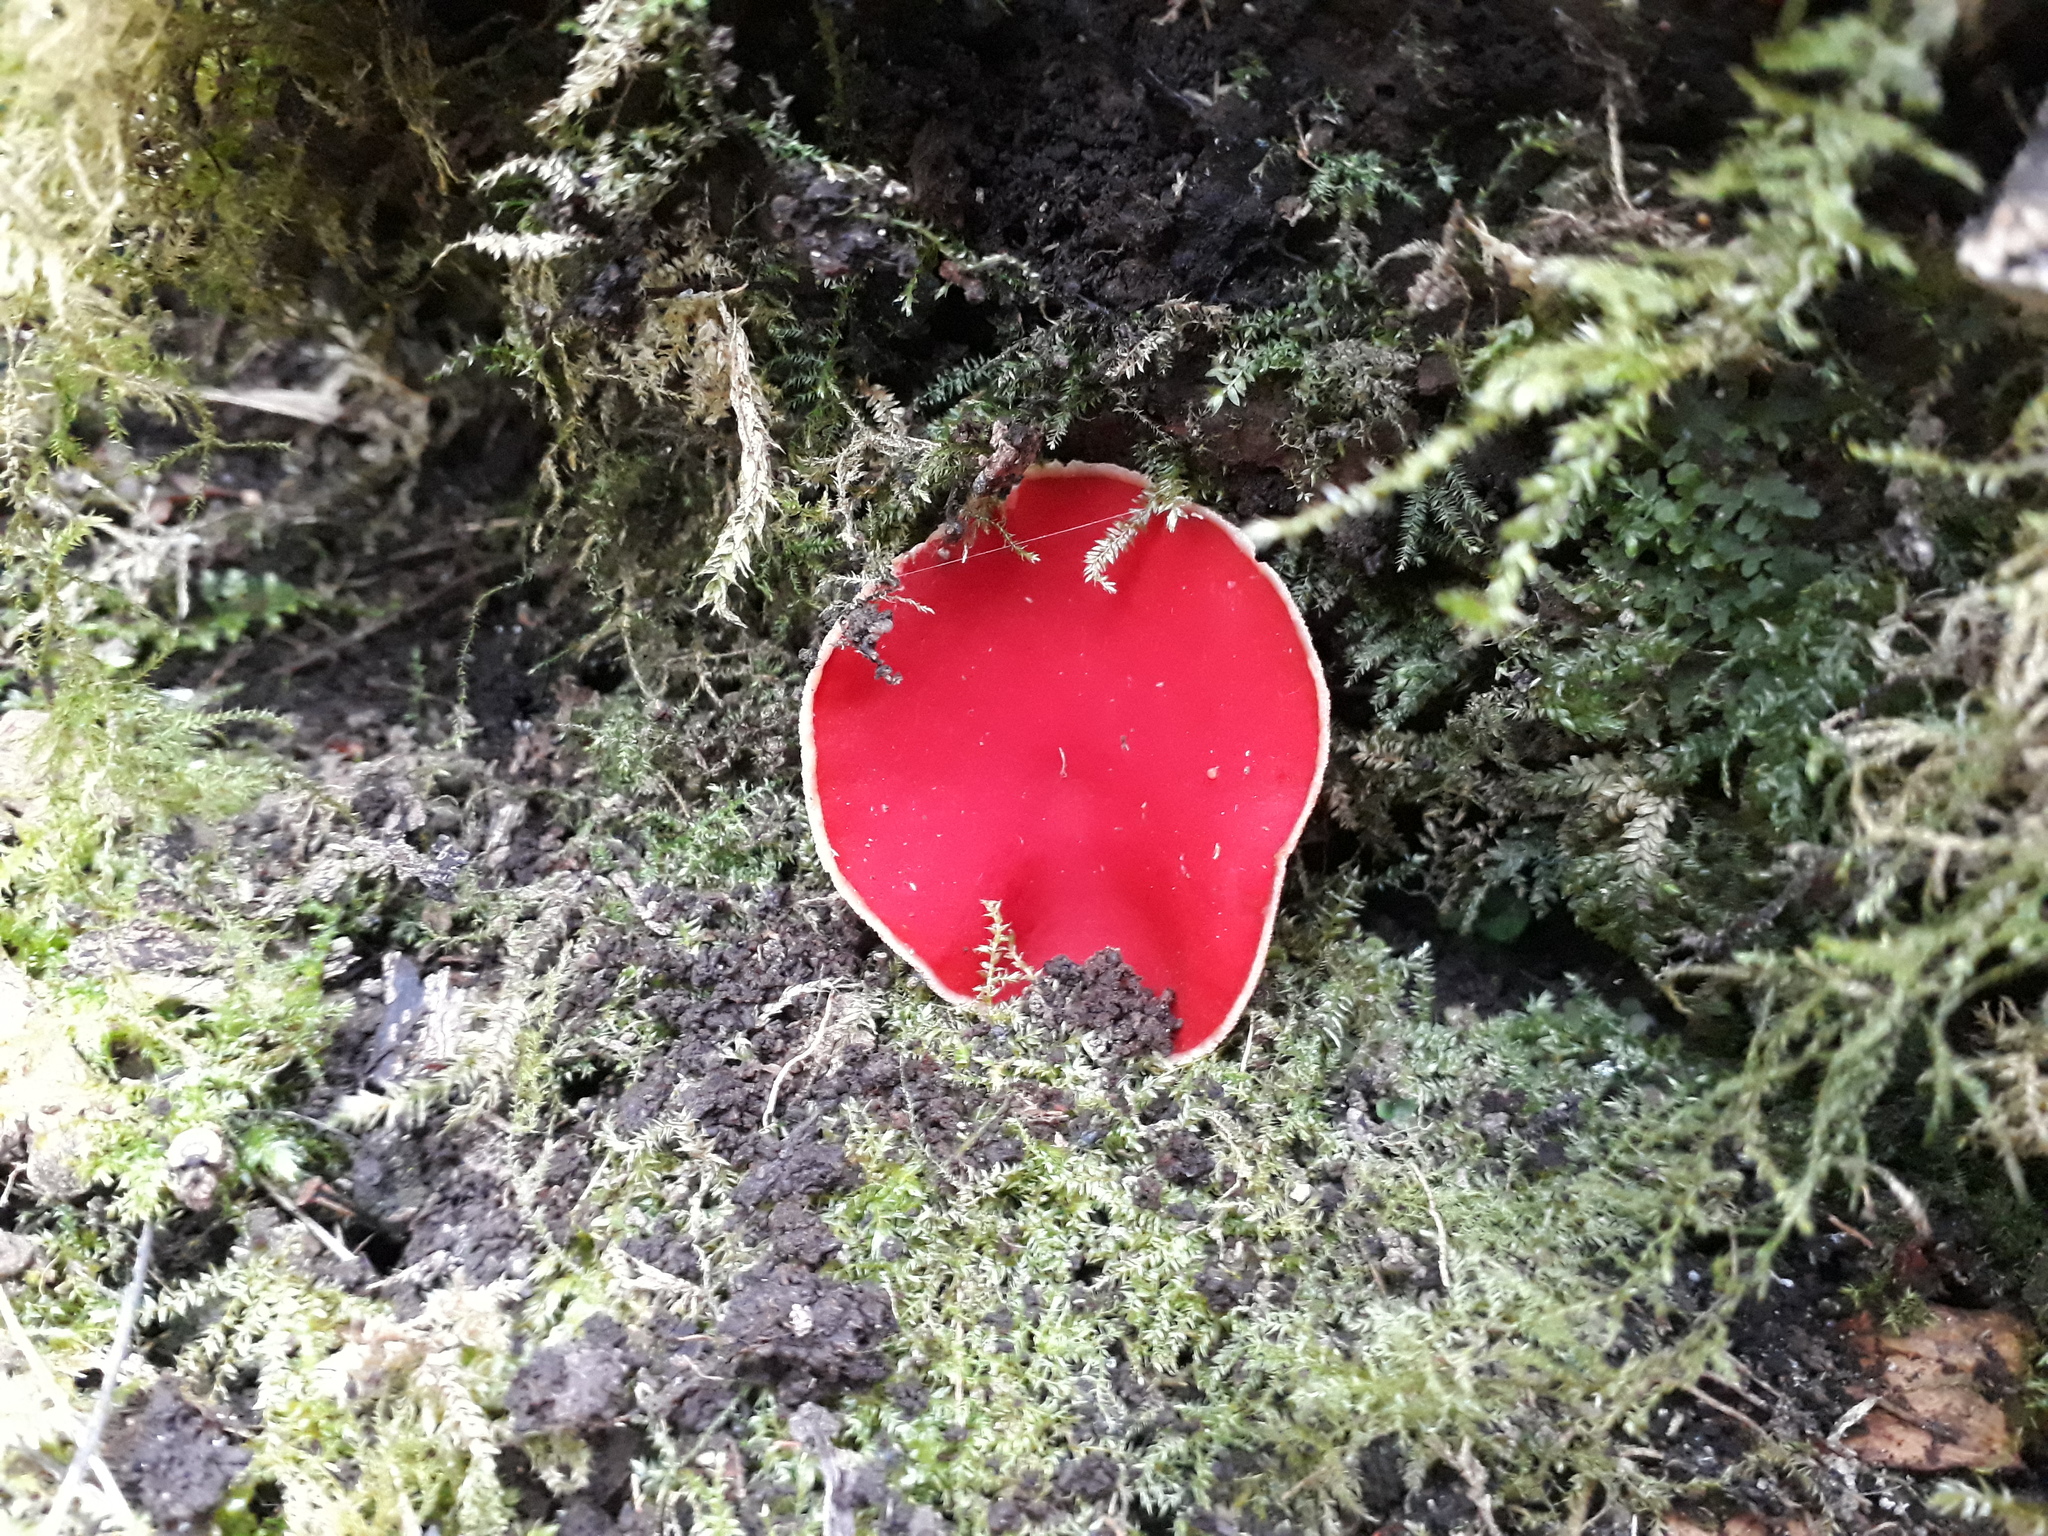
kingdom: Fungi
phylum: Ascomycota
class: Pezizomycetes
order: Pezizales
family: Sarcoscyphaceae
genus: Sarcoscypha
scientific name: Sarcoscypha
